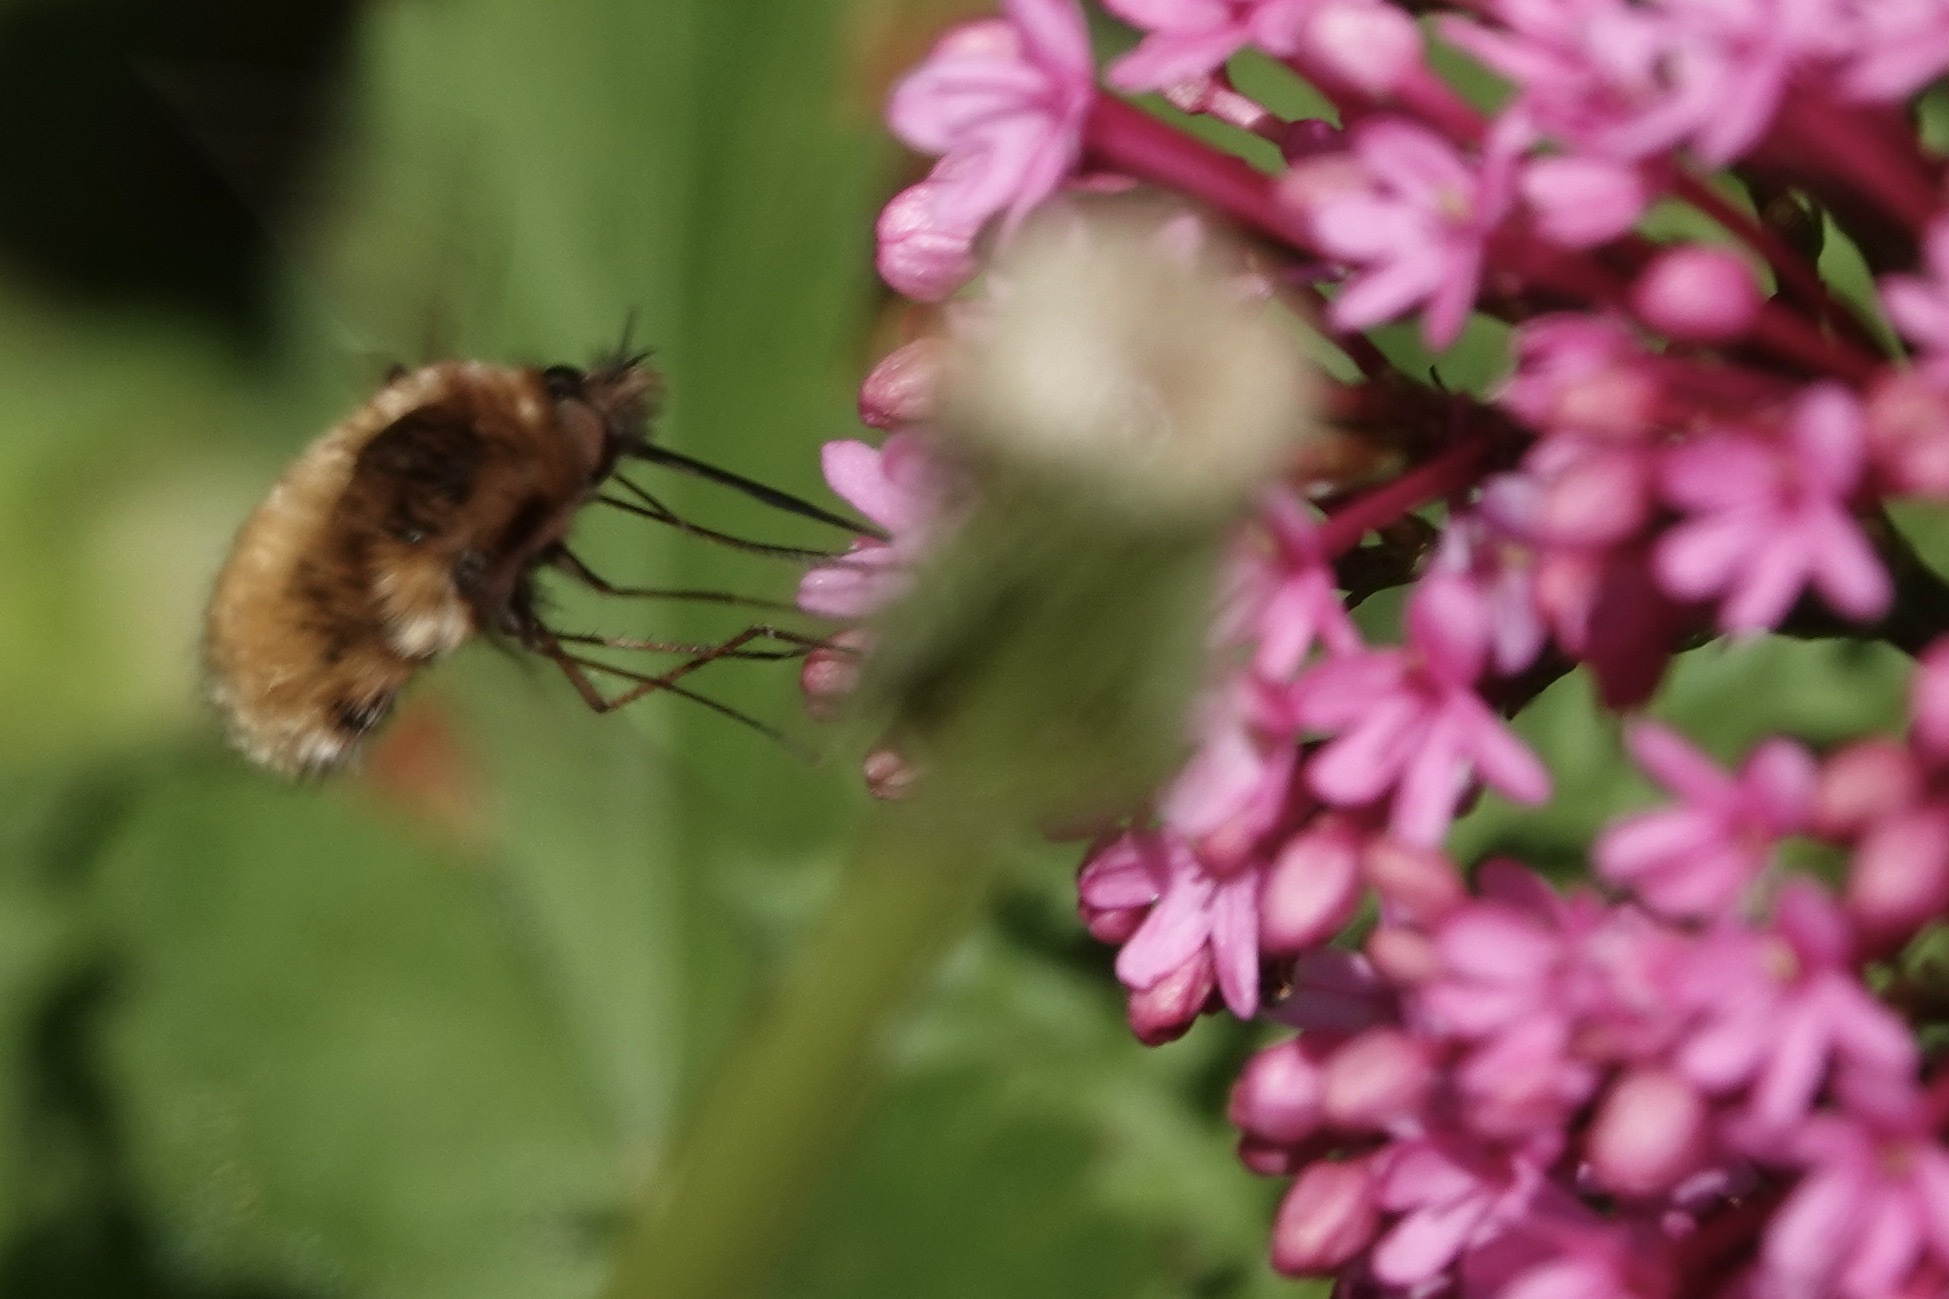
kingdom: Animalia
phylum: Arthropoda
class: Insecta
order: Diptera
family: Bombyliidae
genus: Bombylius
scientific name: Bombylius major
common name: Bee fly
